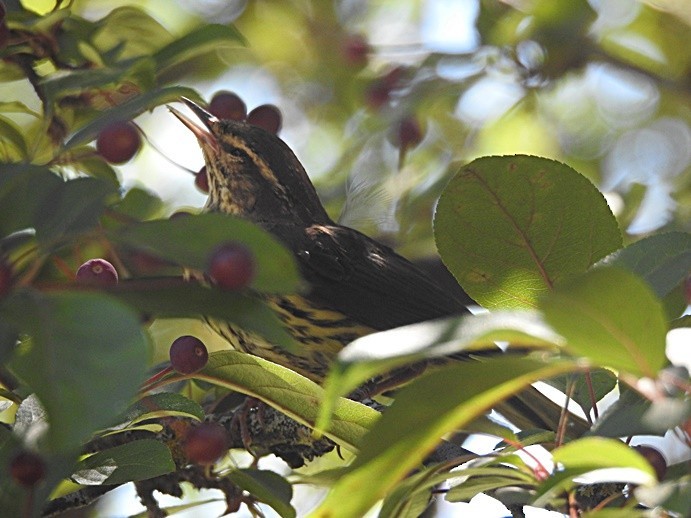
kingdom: Animalia
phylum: Chordata
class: Aves
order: Passeriformes
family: Parulidae
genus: Parkesia
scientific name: Parkesia noveboracensis
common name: Northern waterthrush
